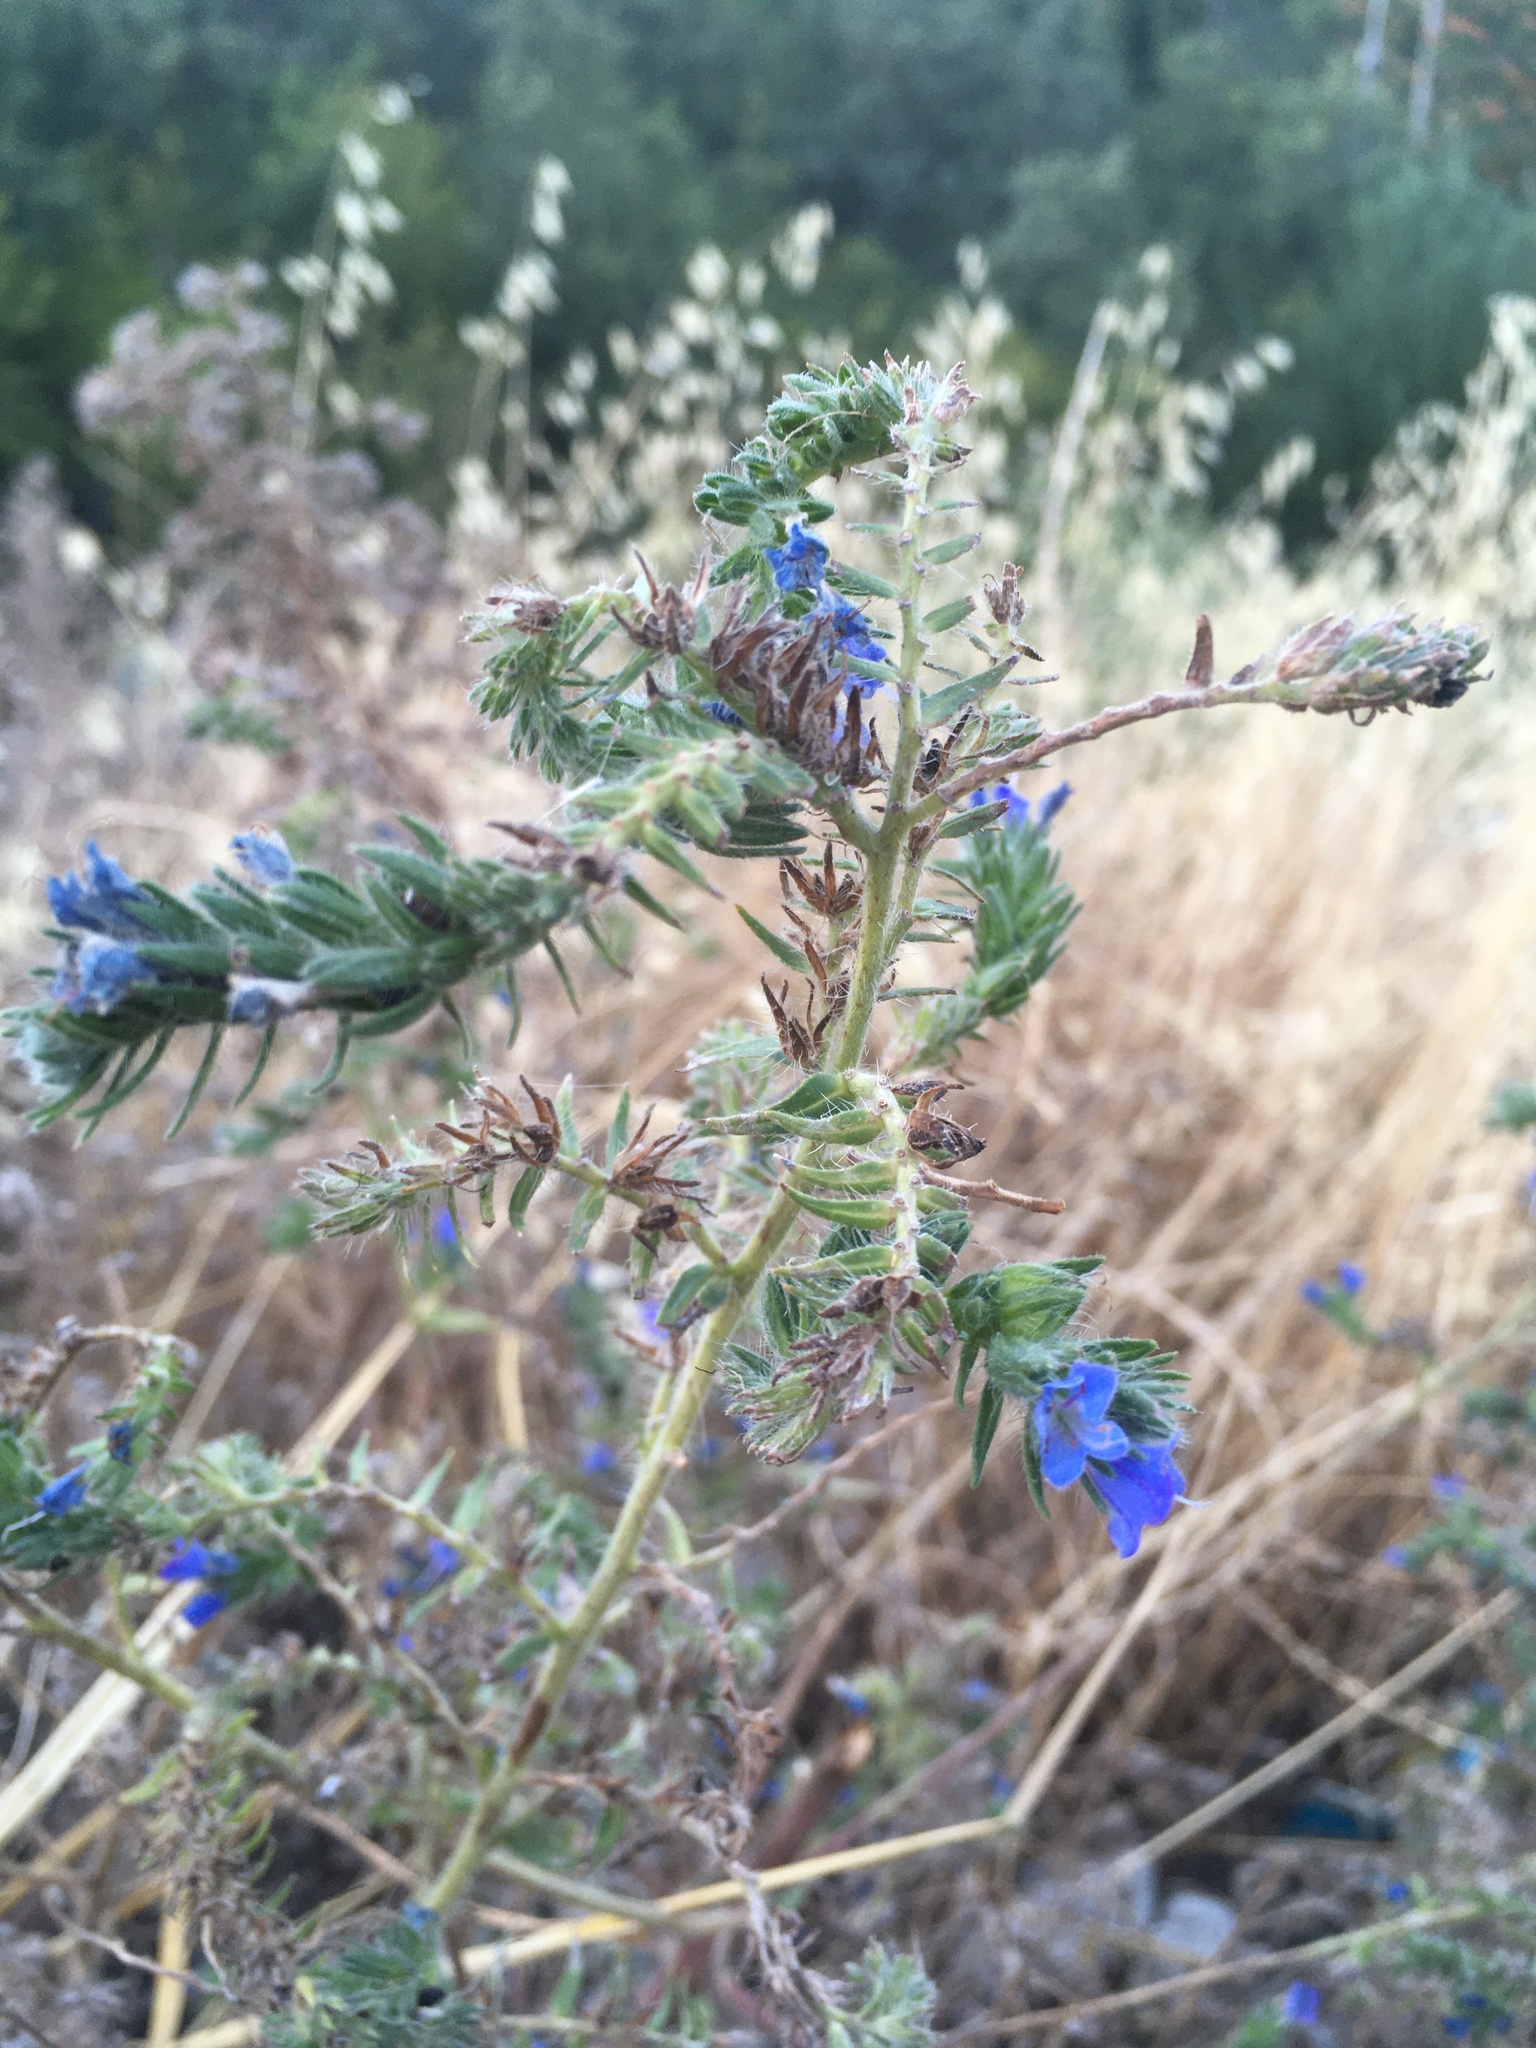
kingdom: Plantae
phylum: Tracheophyta
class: Magnoliopsida
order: Boraginales
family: Boraginaceae
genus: Echium
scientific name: Echium vulgare
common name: Common viper's bugloss
